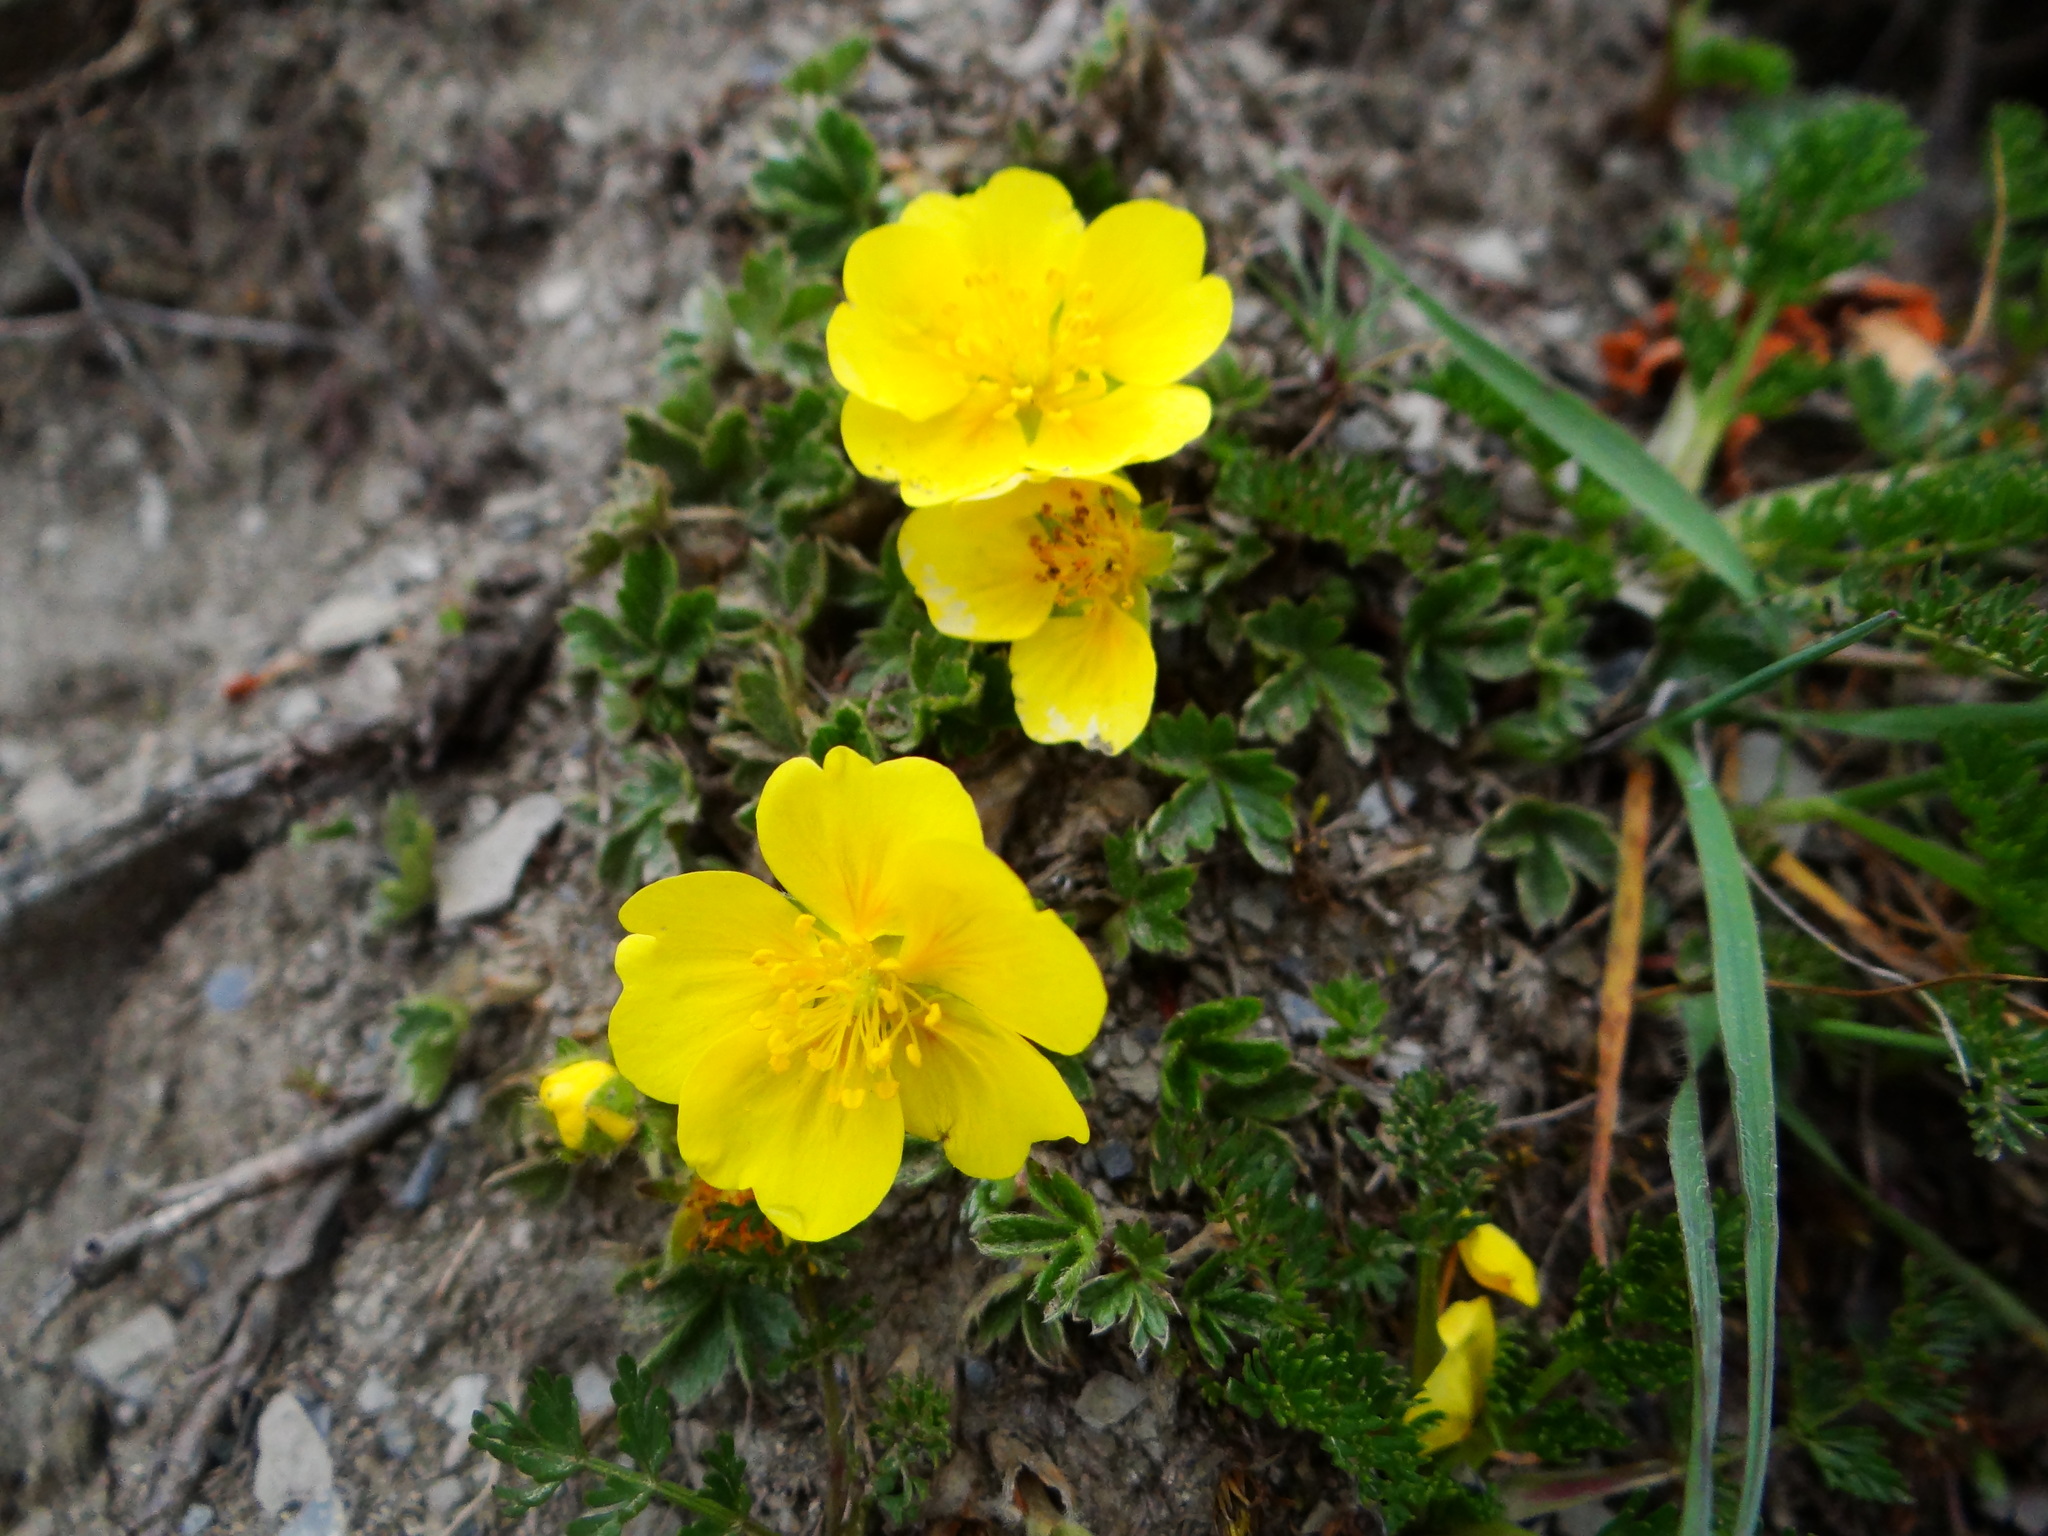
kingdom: Plantae
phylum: Tracheophyta
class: Magnoliopsida
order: Rosales
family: Rosaceae
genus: Potentilla
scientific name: Potentilla matsumurae
